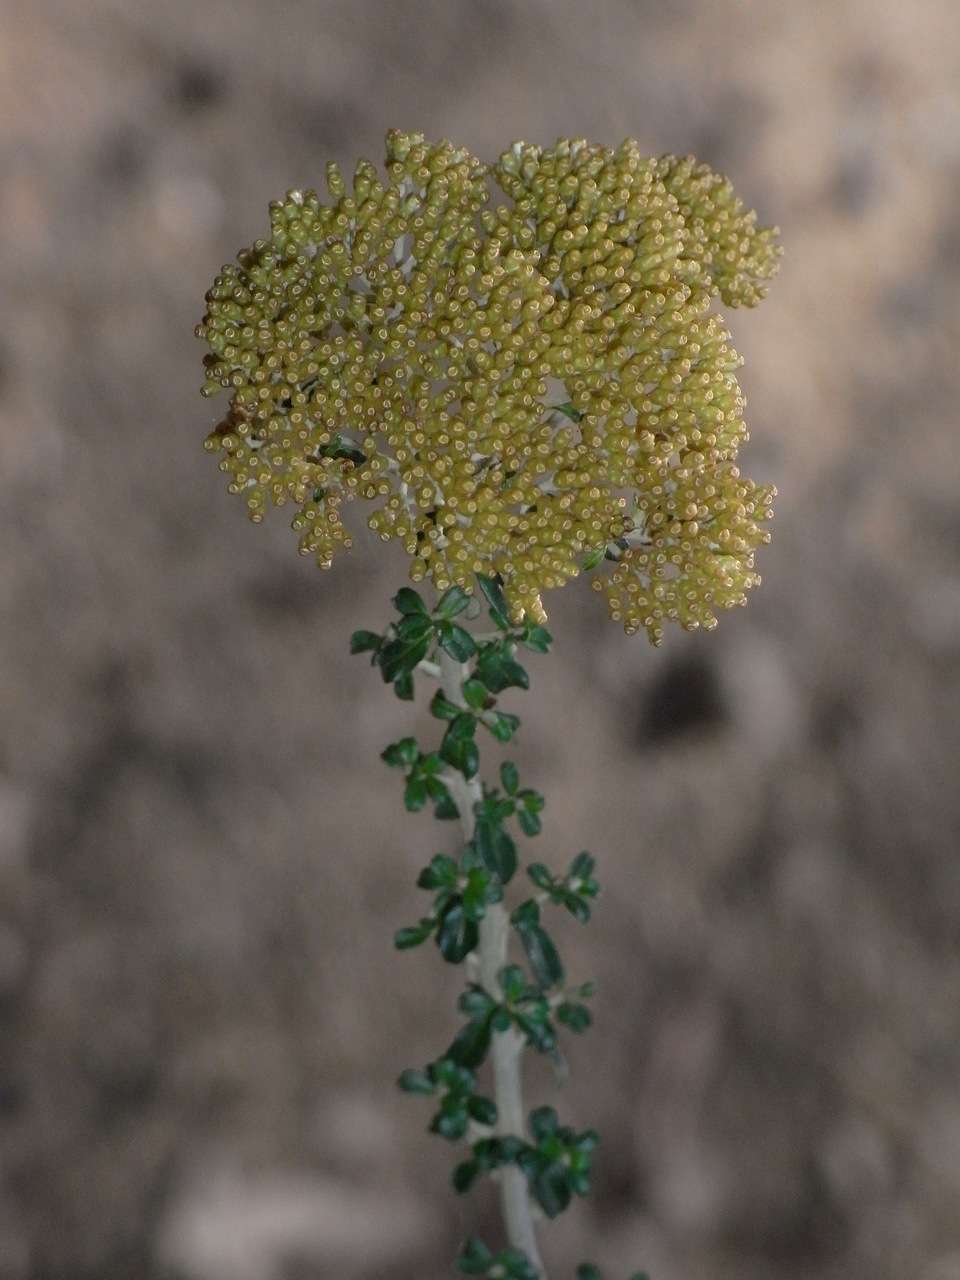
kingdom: Plantae
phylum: Tracheophyta
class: Magnoliopsida
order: Asterales
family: Asteraceae
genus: Ozothamnus
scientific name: Ozothamnus obcordatus
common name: Grey everlasting
